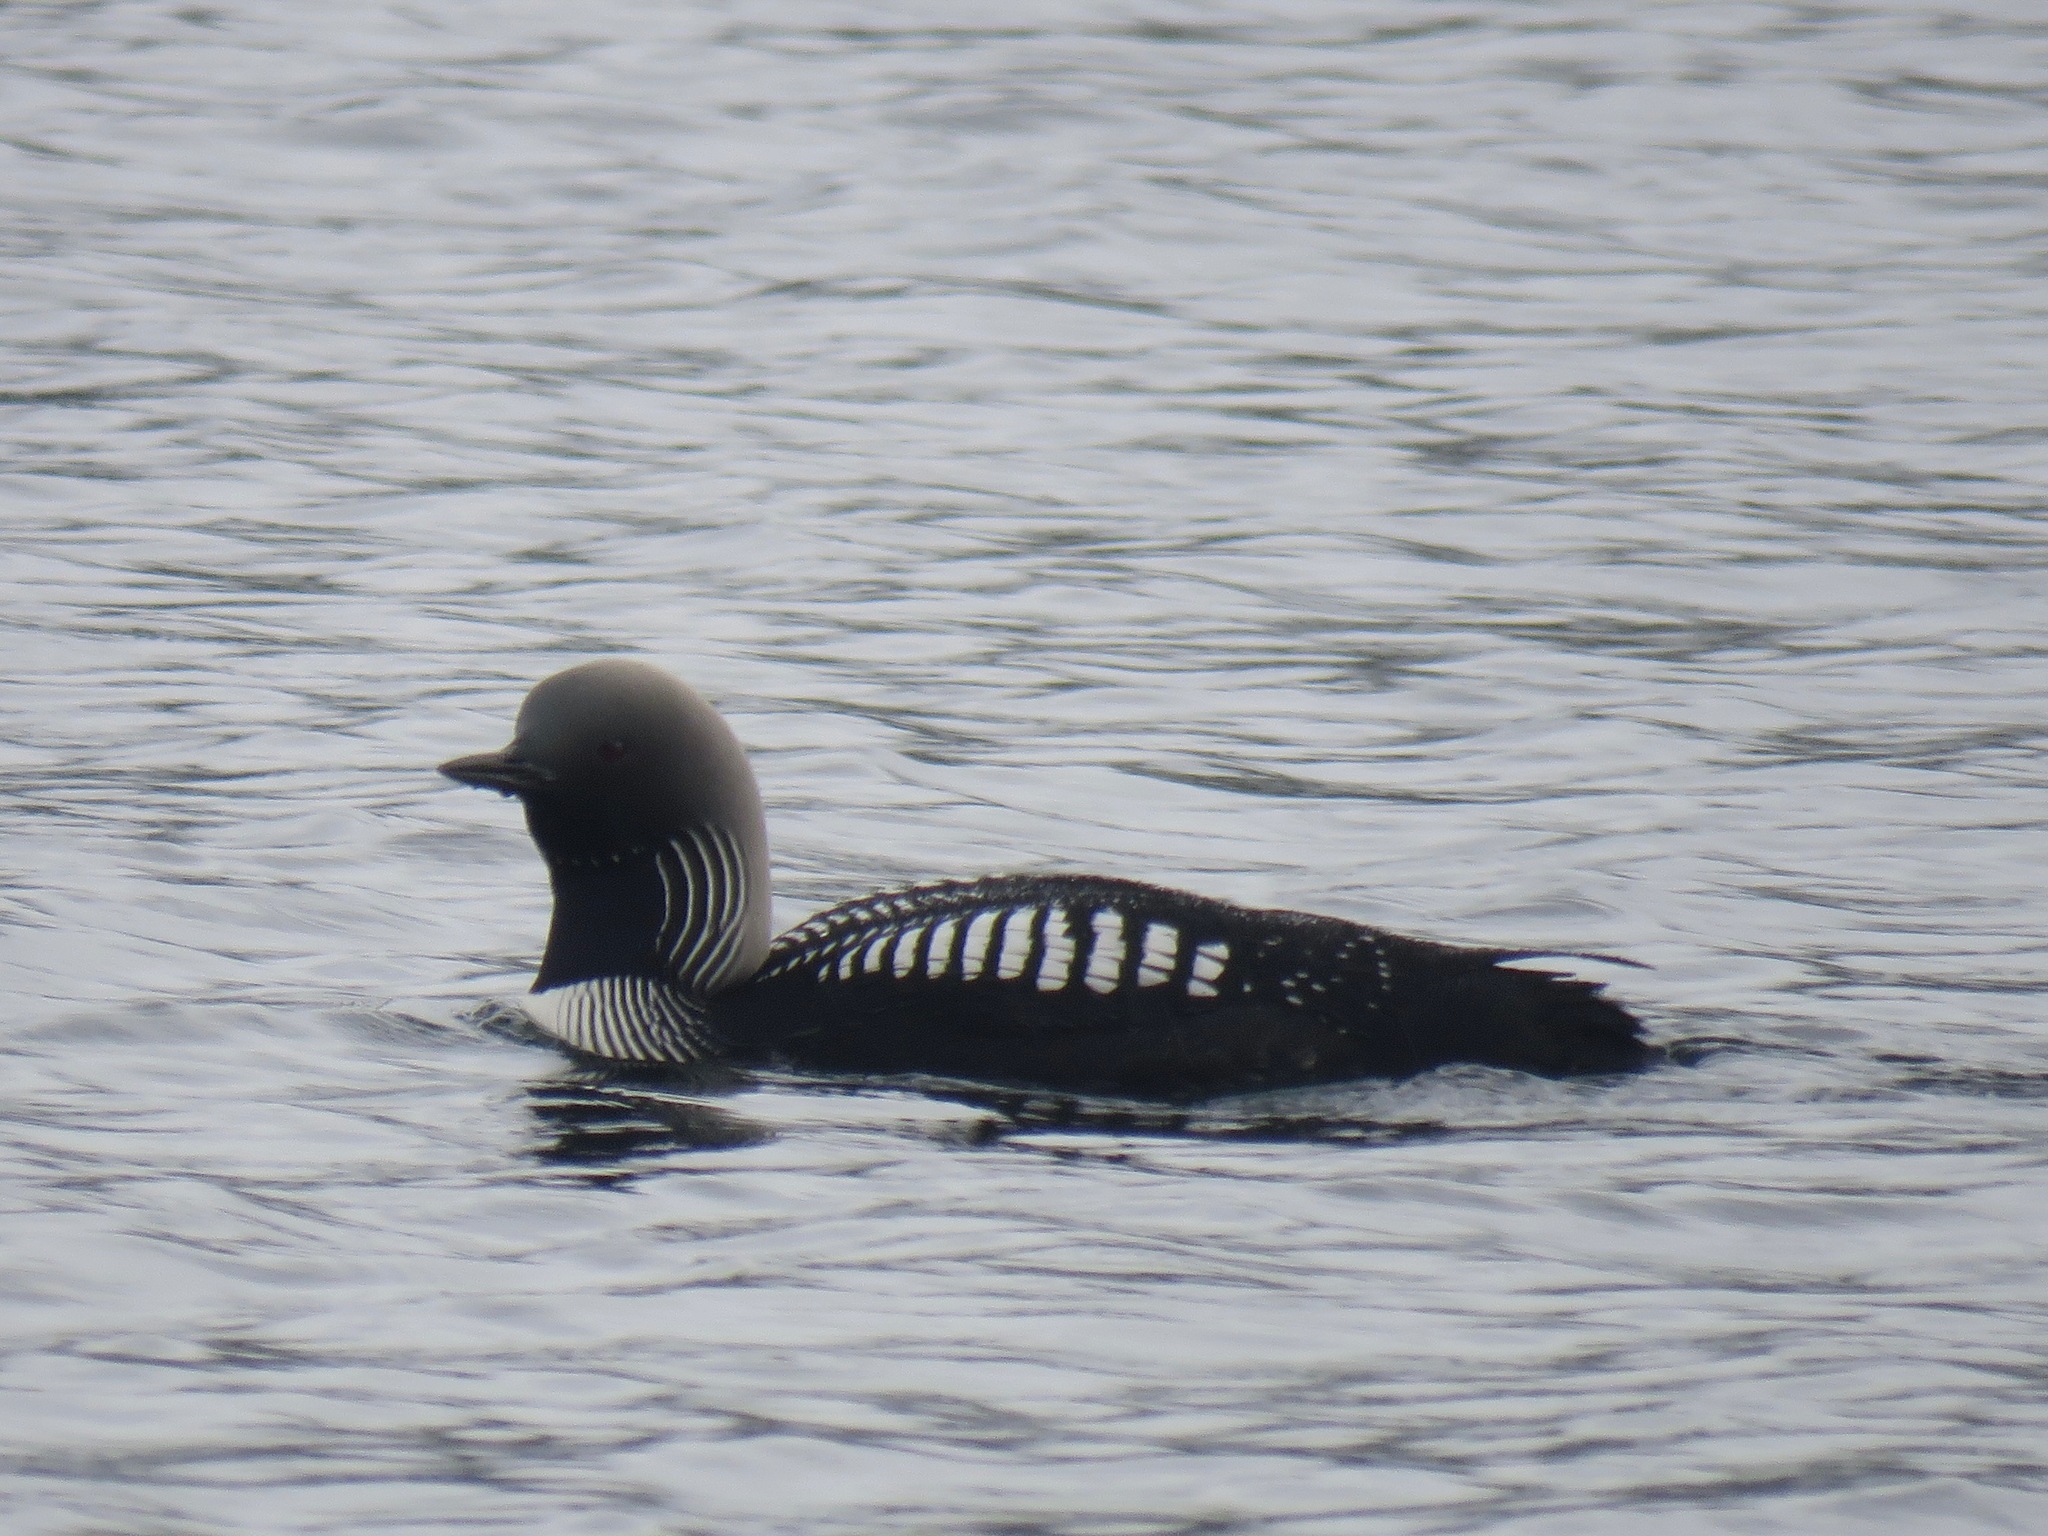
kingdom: Animalia
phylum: Chordata
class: Aves
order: Gaviiformes
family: Gaviidae
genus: Gavia
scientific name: Gavia pacifica
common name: Pacific loon
